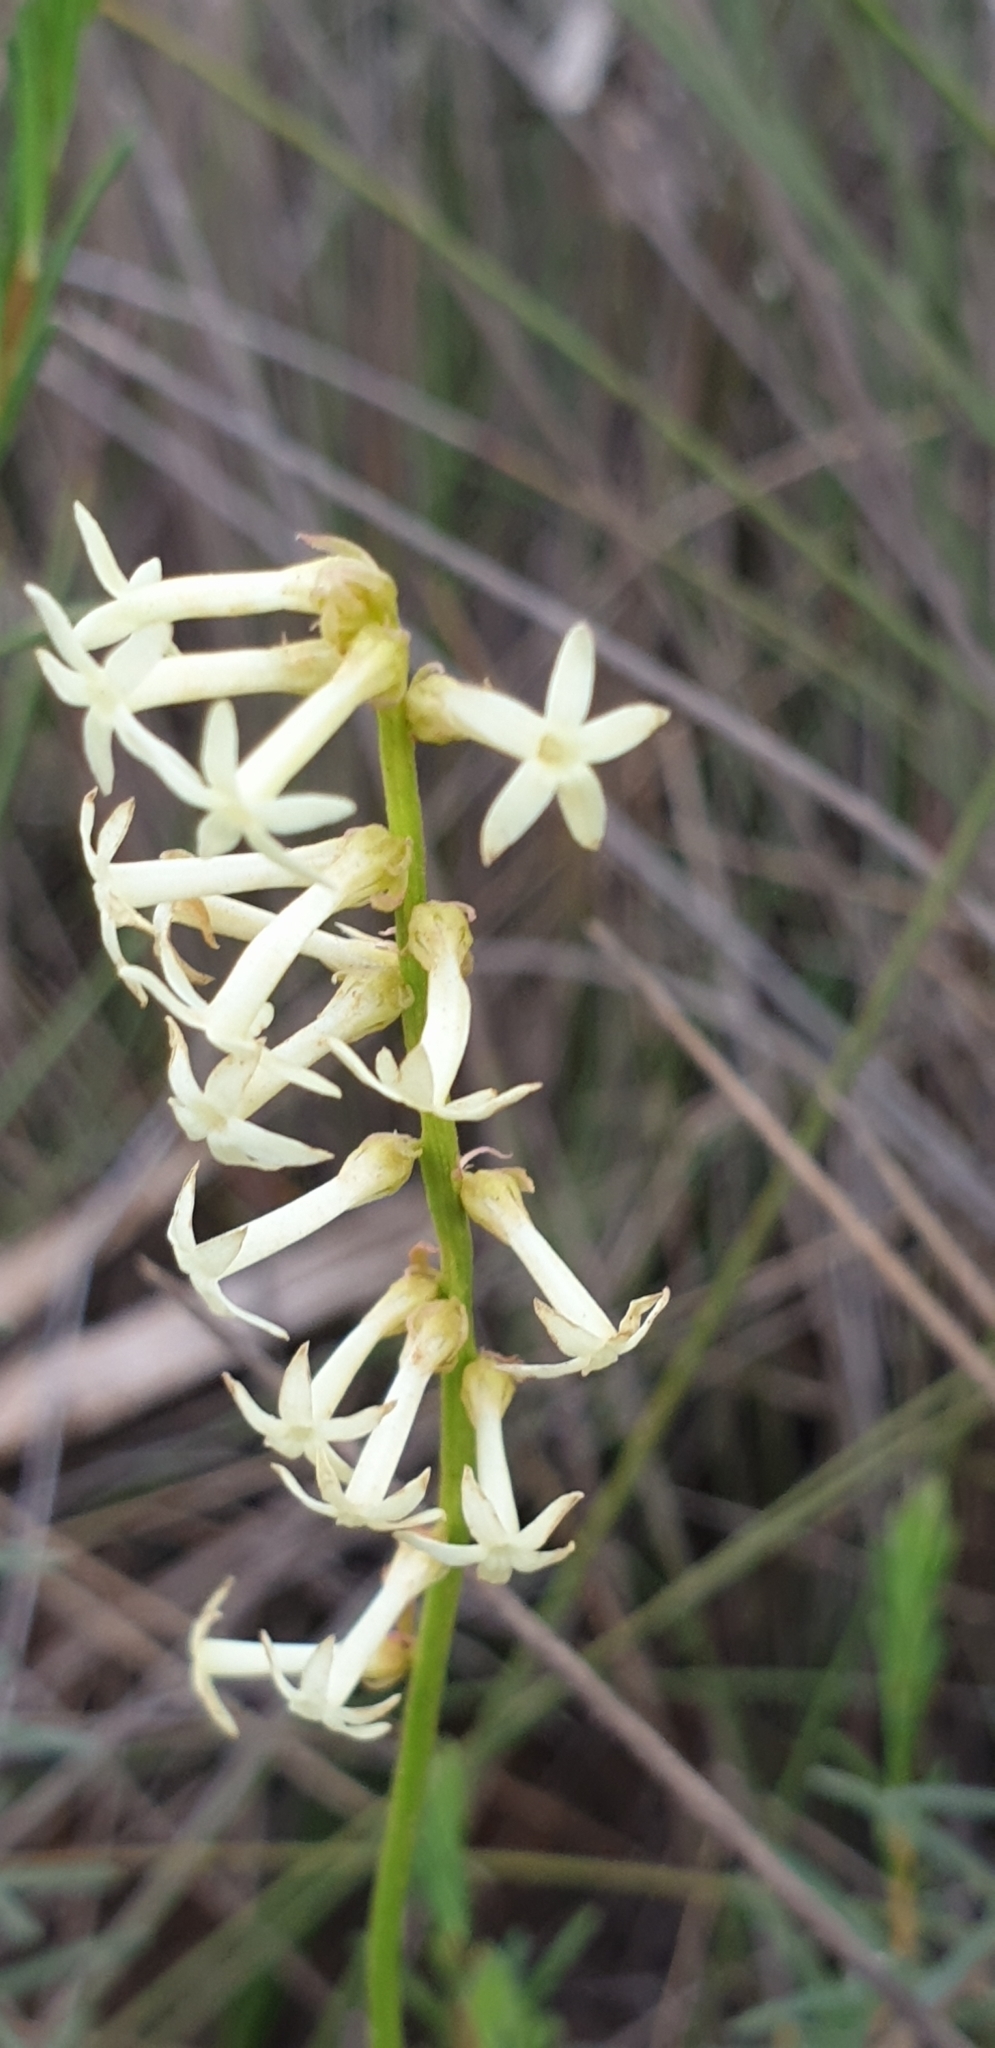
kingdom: Plantae
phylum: Tracheophyta
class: Magnoliopsida
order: Celastrales
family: Celastraceae
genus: Stackhousia
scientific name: Stackhousia monogyna
